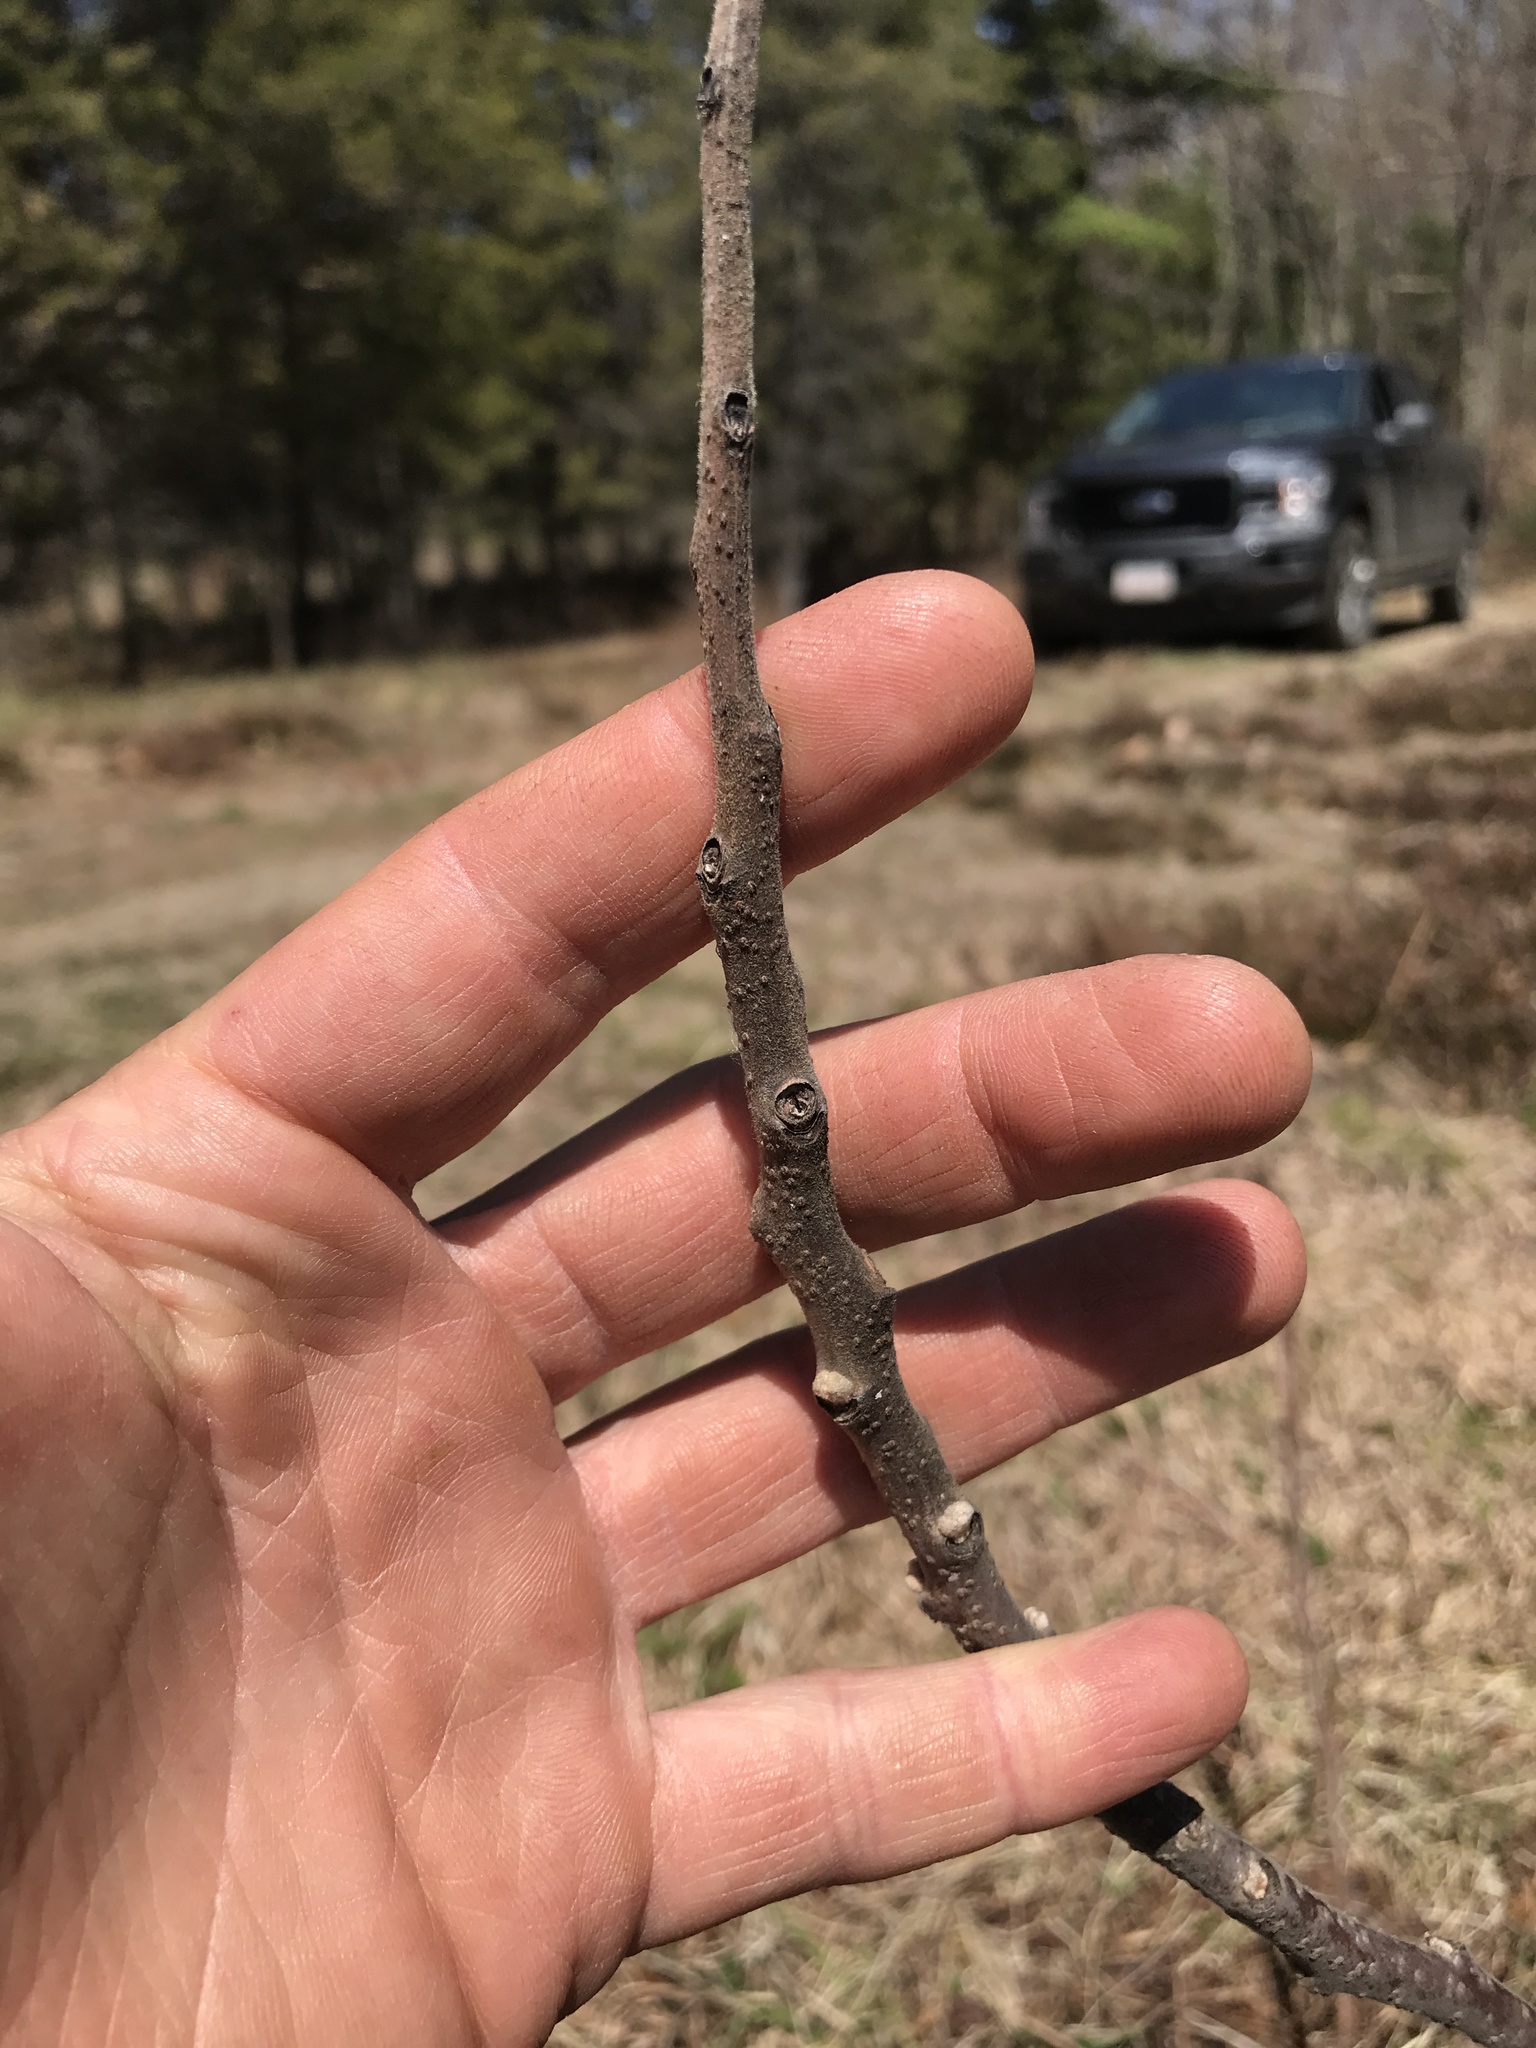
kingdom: Plantae
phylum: Tracheophyta
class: Magnoliopsida
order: Sapindales
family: Anacardiaceae
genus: Rhus
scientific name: Rhus copallina
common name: Shining sumac
